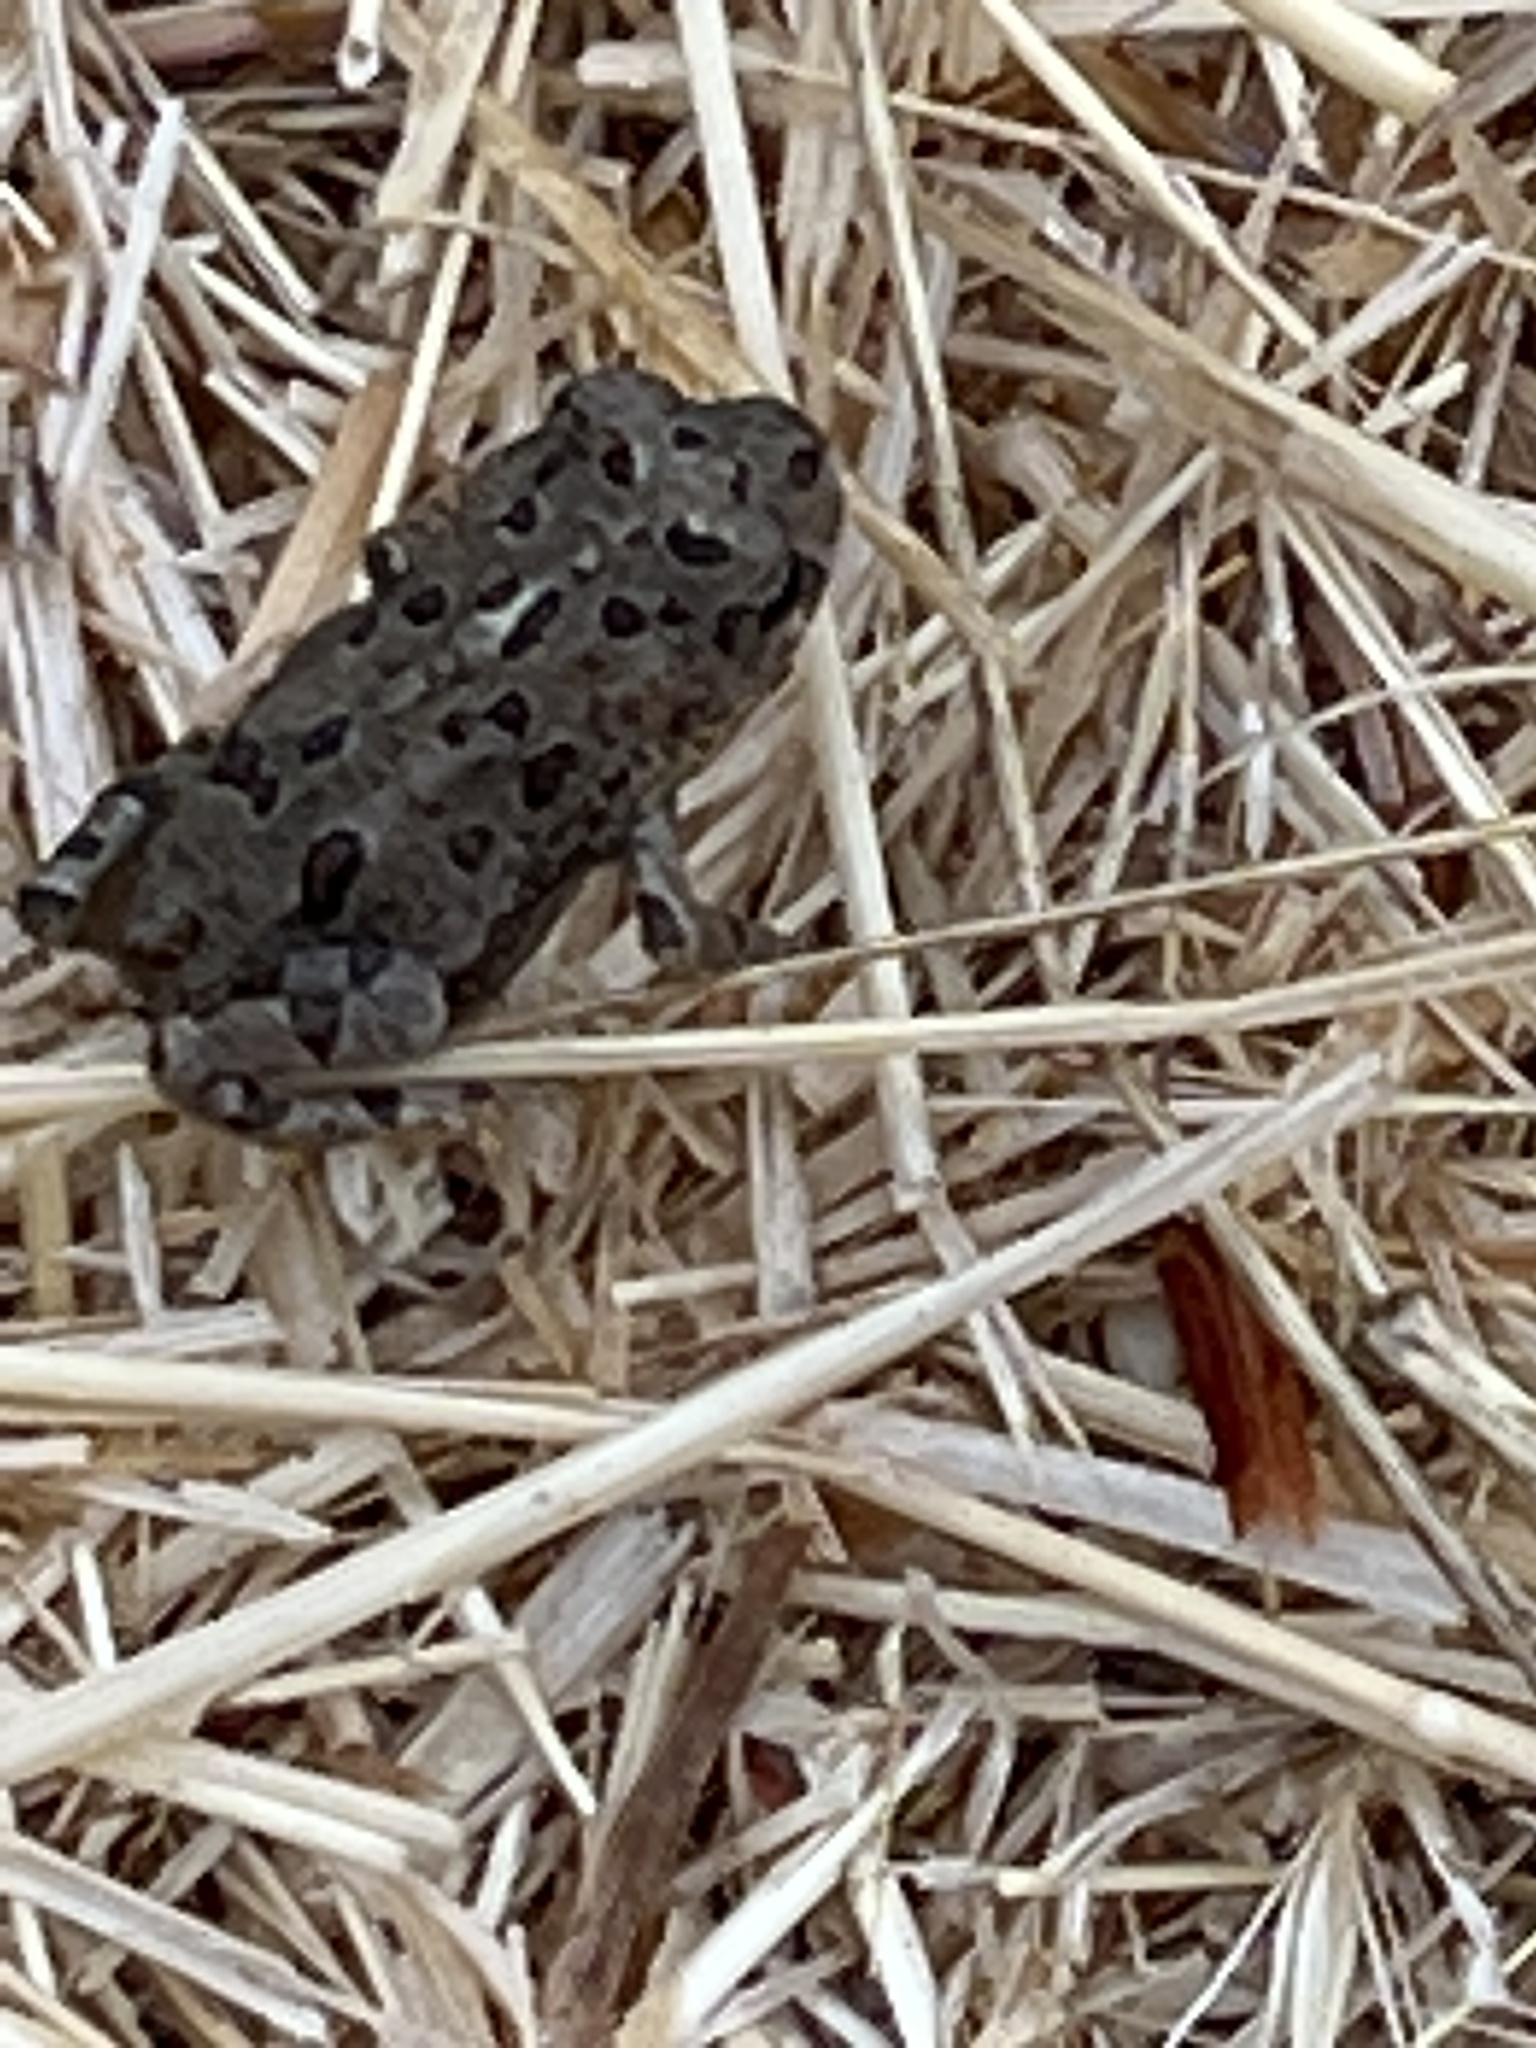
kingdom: Animalia
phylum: Chordata
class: Amphibia
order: Anura
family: Bufonidae
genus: Anaxyrus
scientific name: Anaxyrus boreas
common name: Western toad
